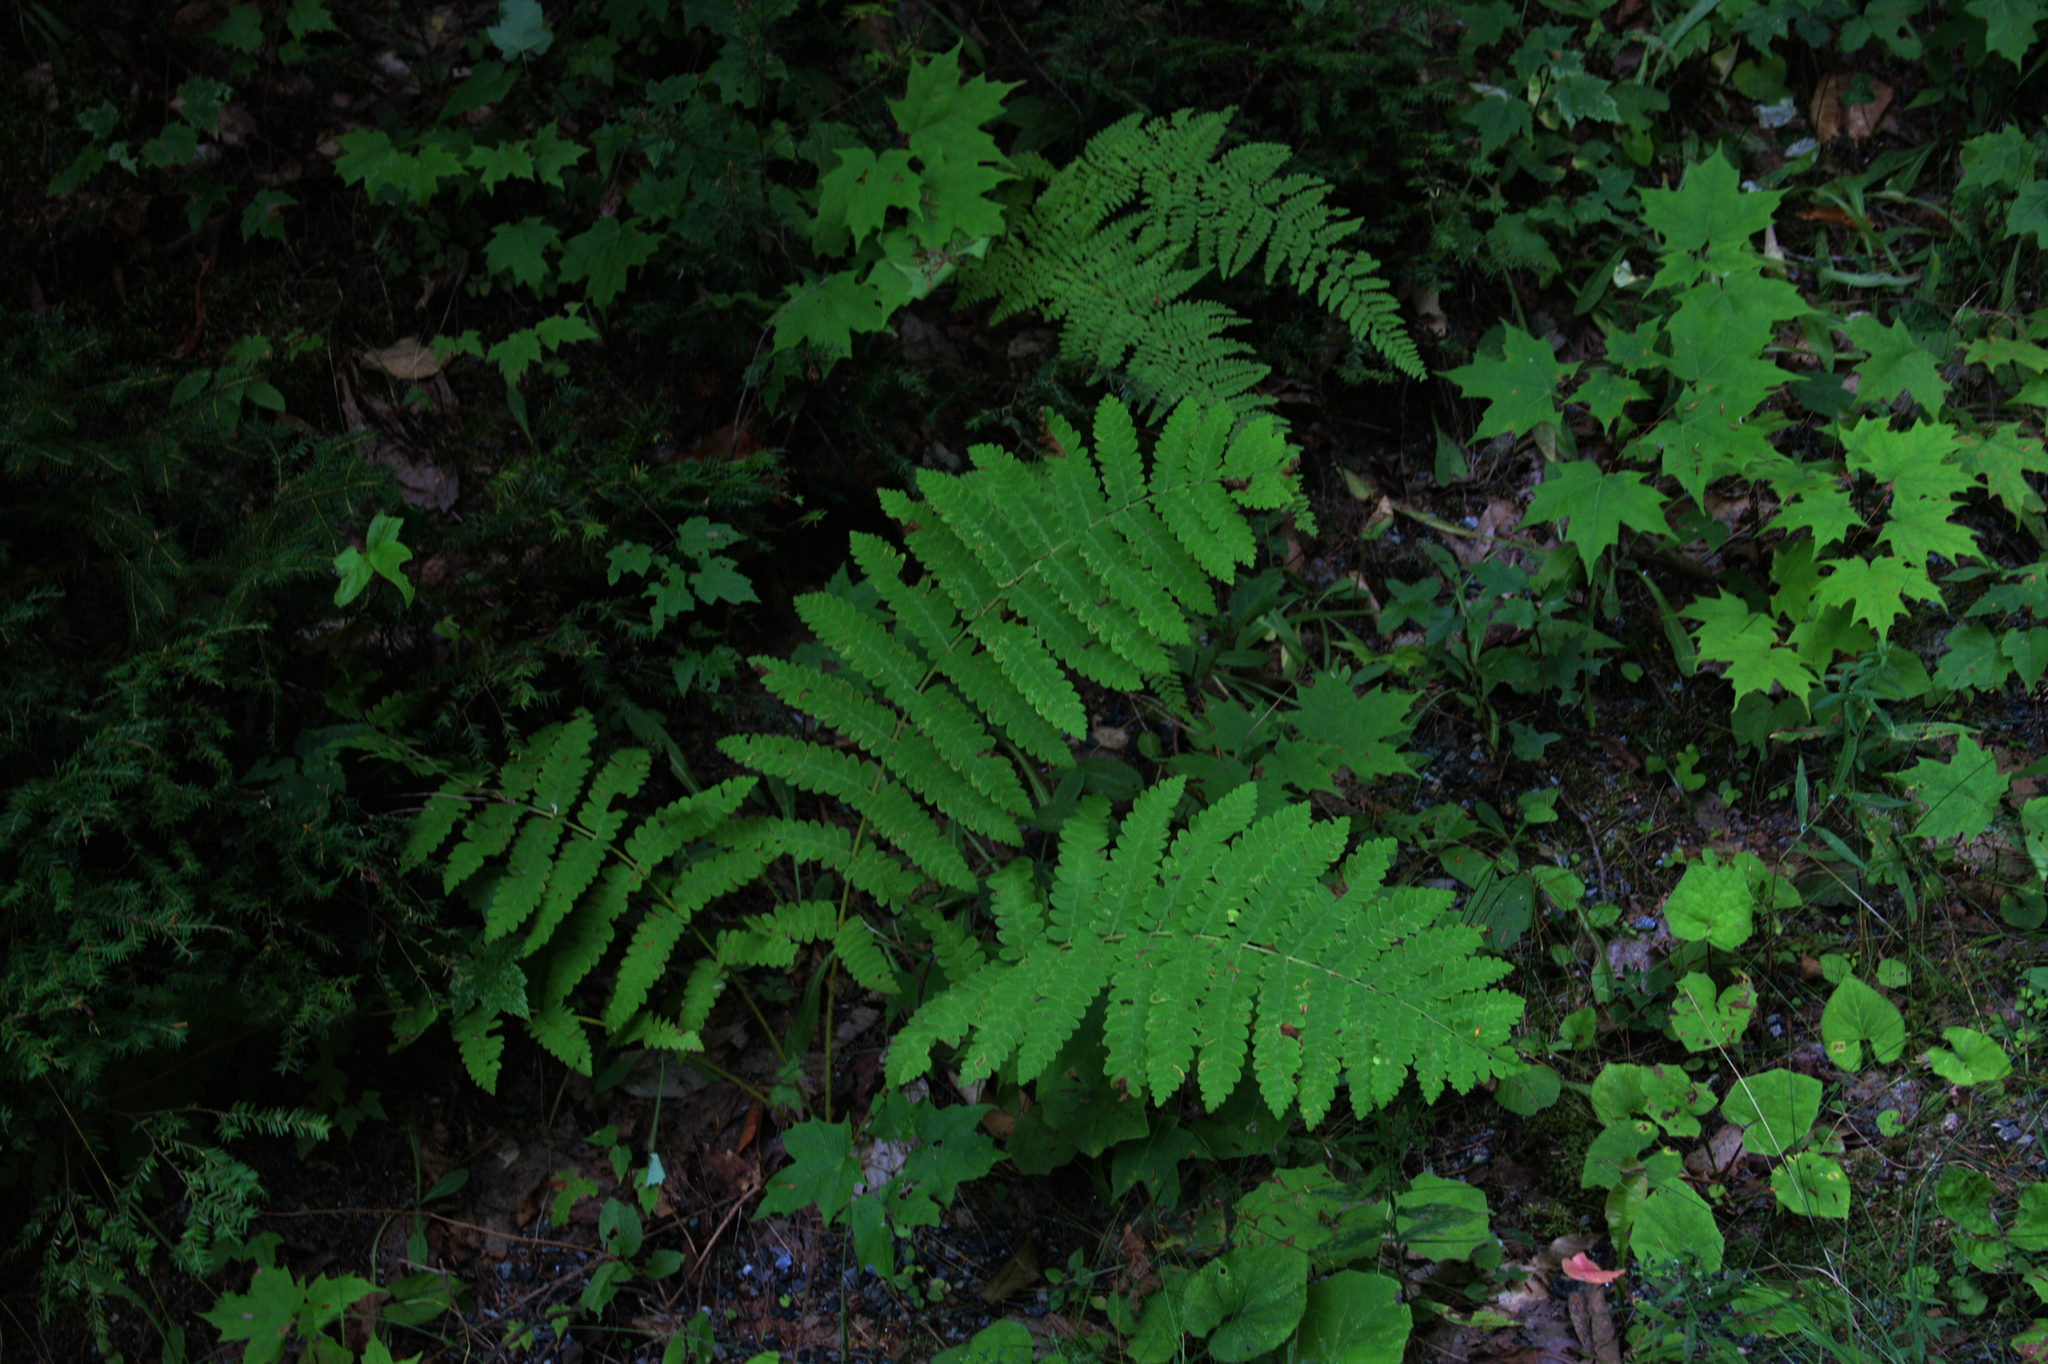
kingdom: Plantae
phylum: Tracheophyta
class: Magnoliopsida
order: Sapindales
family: Sapindaceae
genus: Acer
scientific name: Acer saccharum
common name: Sugar maple
